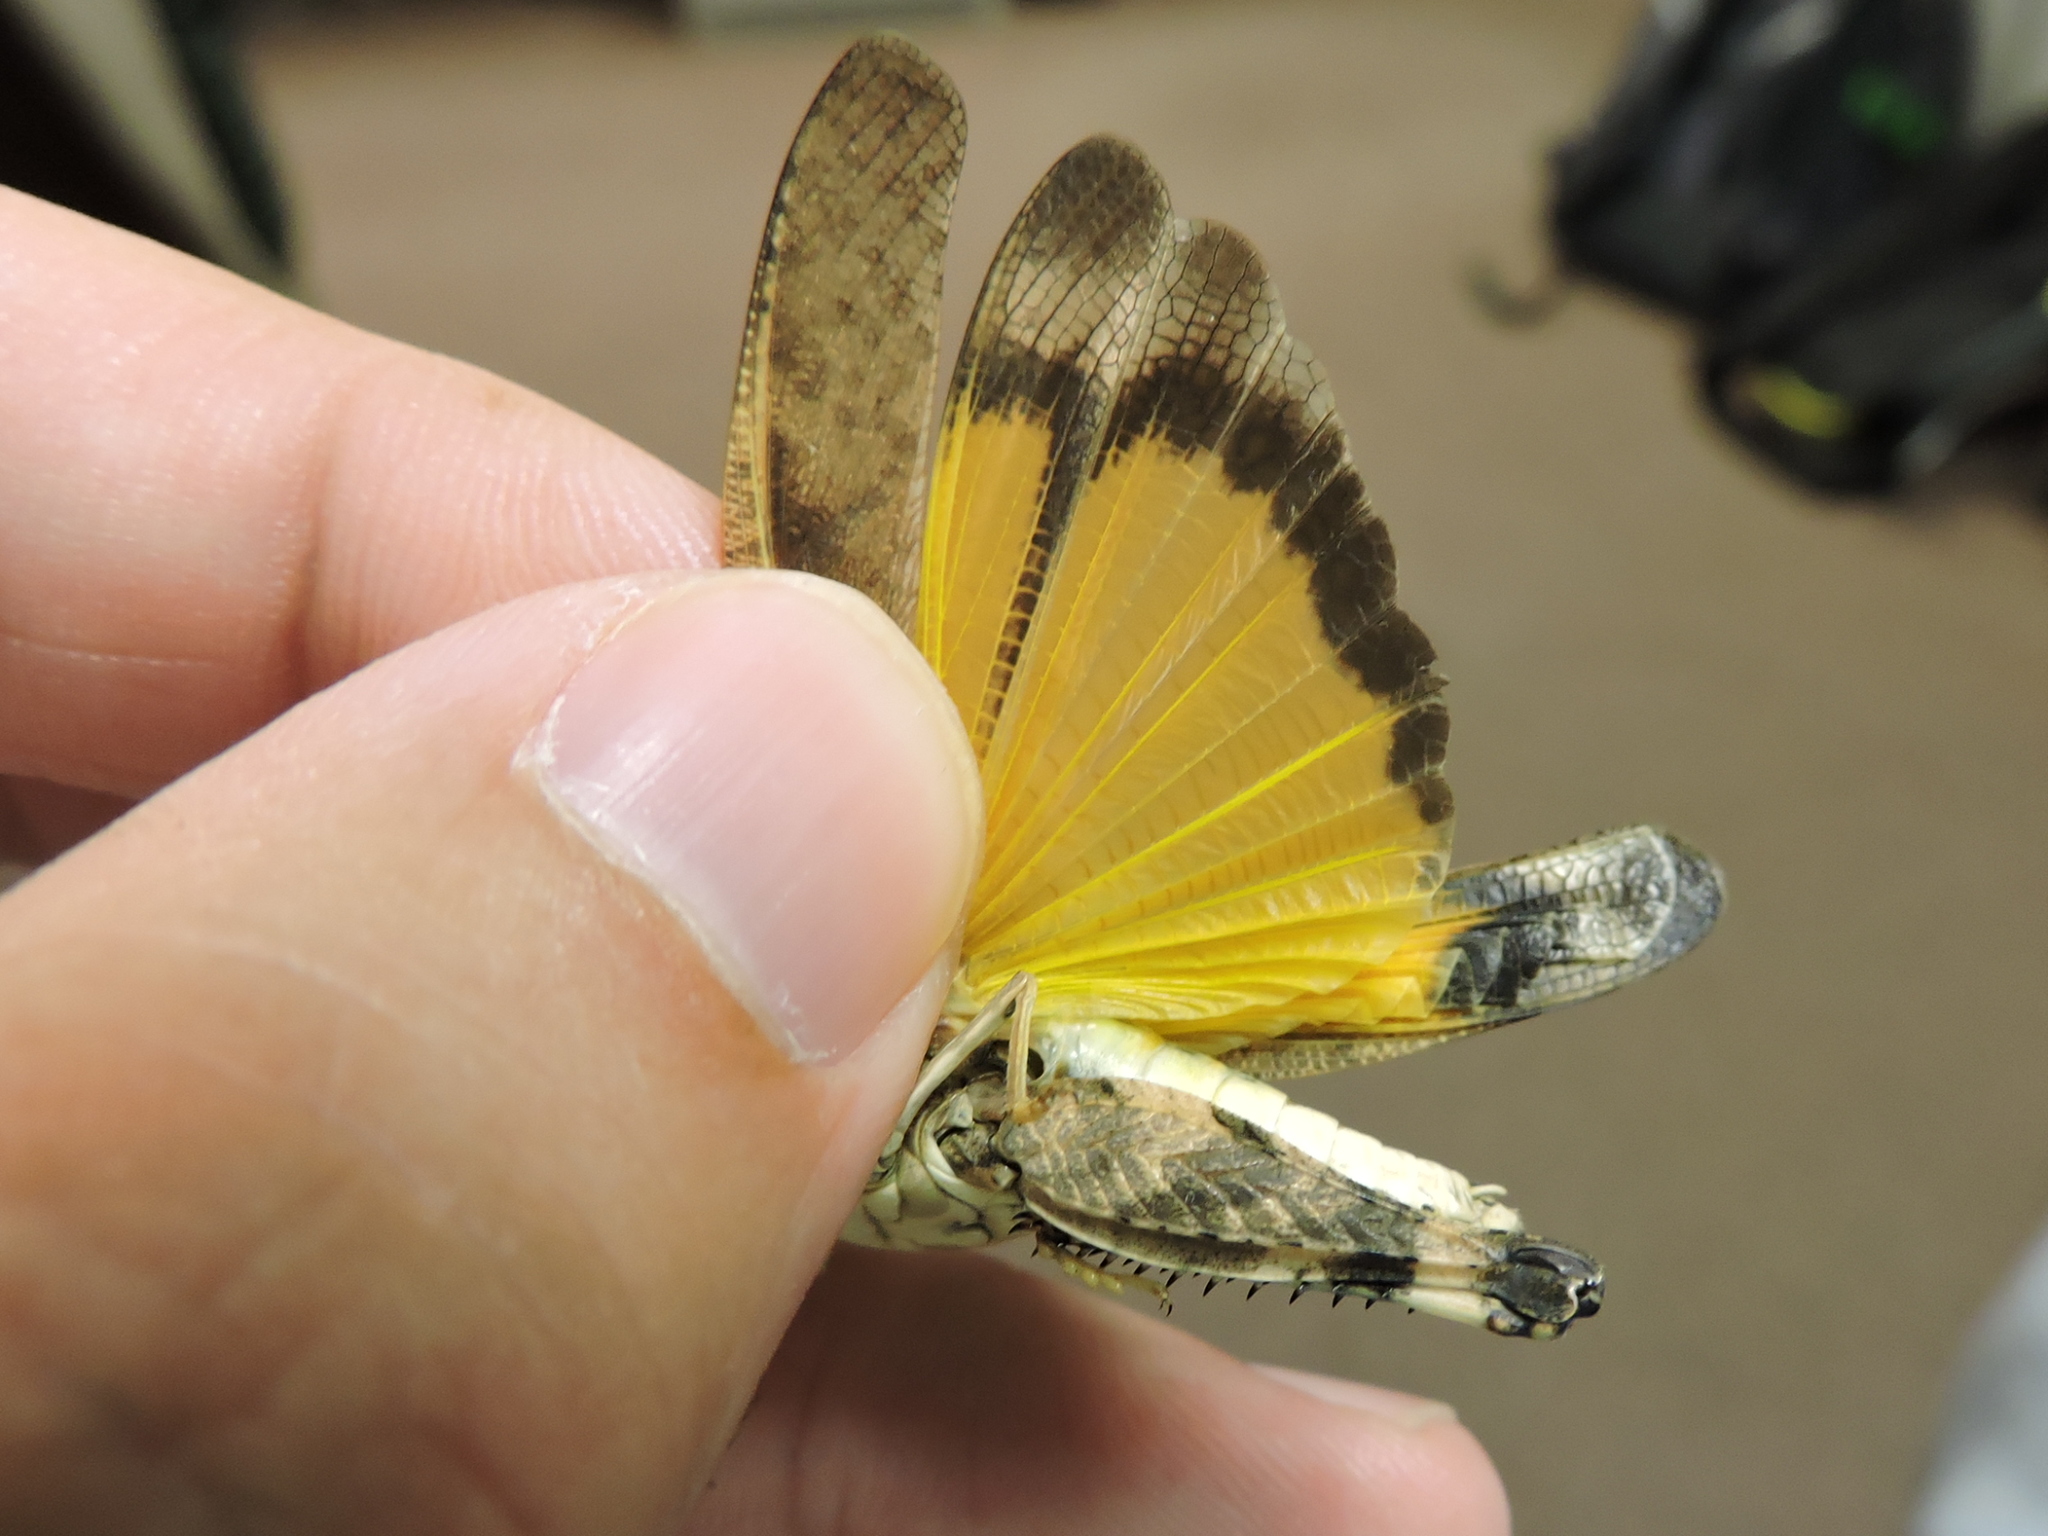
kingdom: Animalia
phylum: Arthropoda
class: Insecta
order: Orthoptera
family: Acrididae
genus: Arphia
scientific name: Arphia simplex
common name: Plains yellow-winged grasshopper
